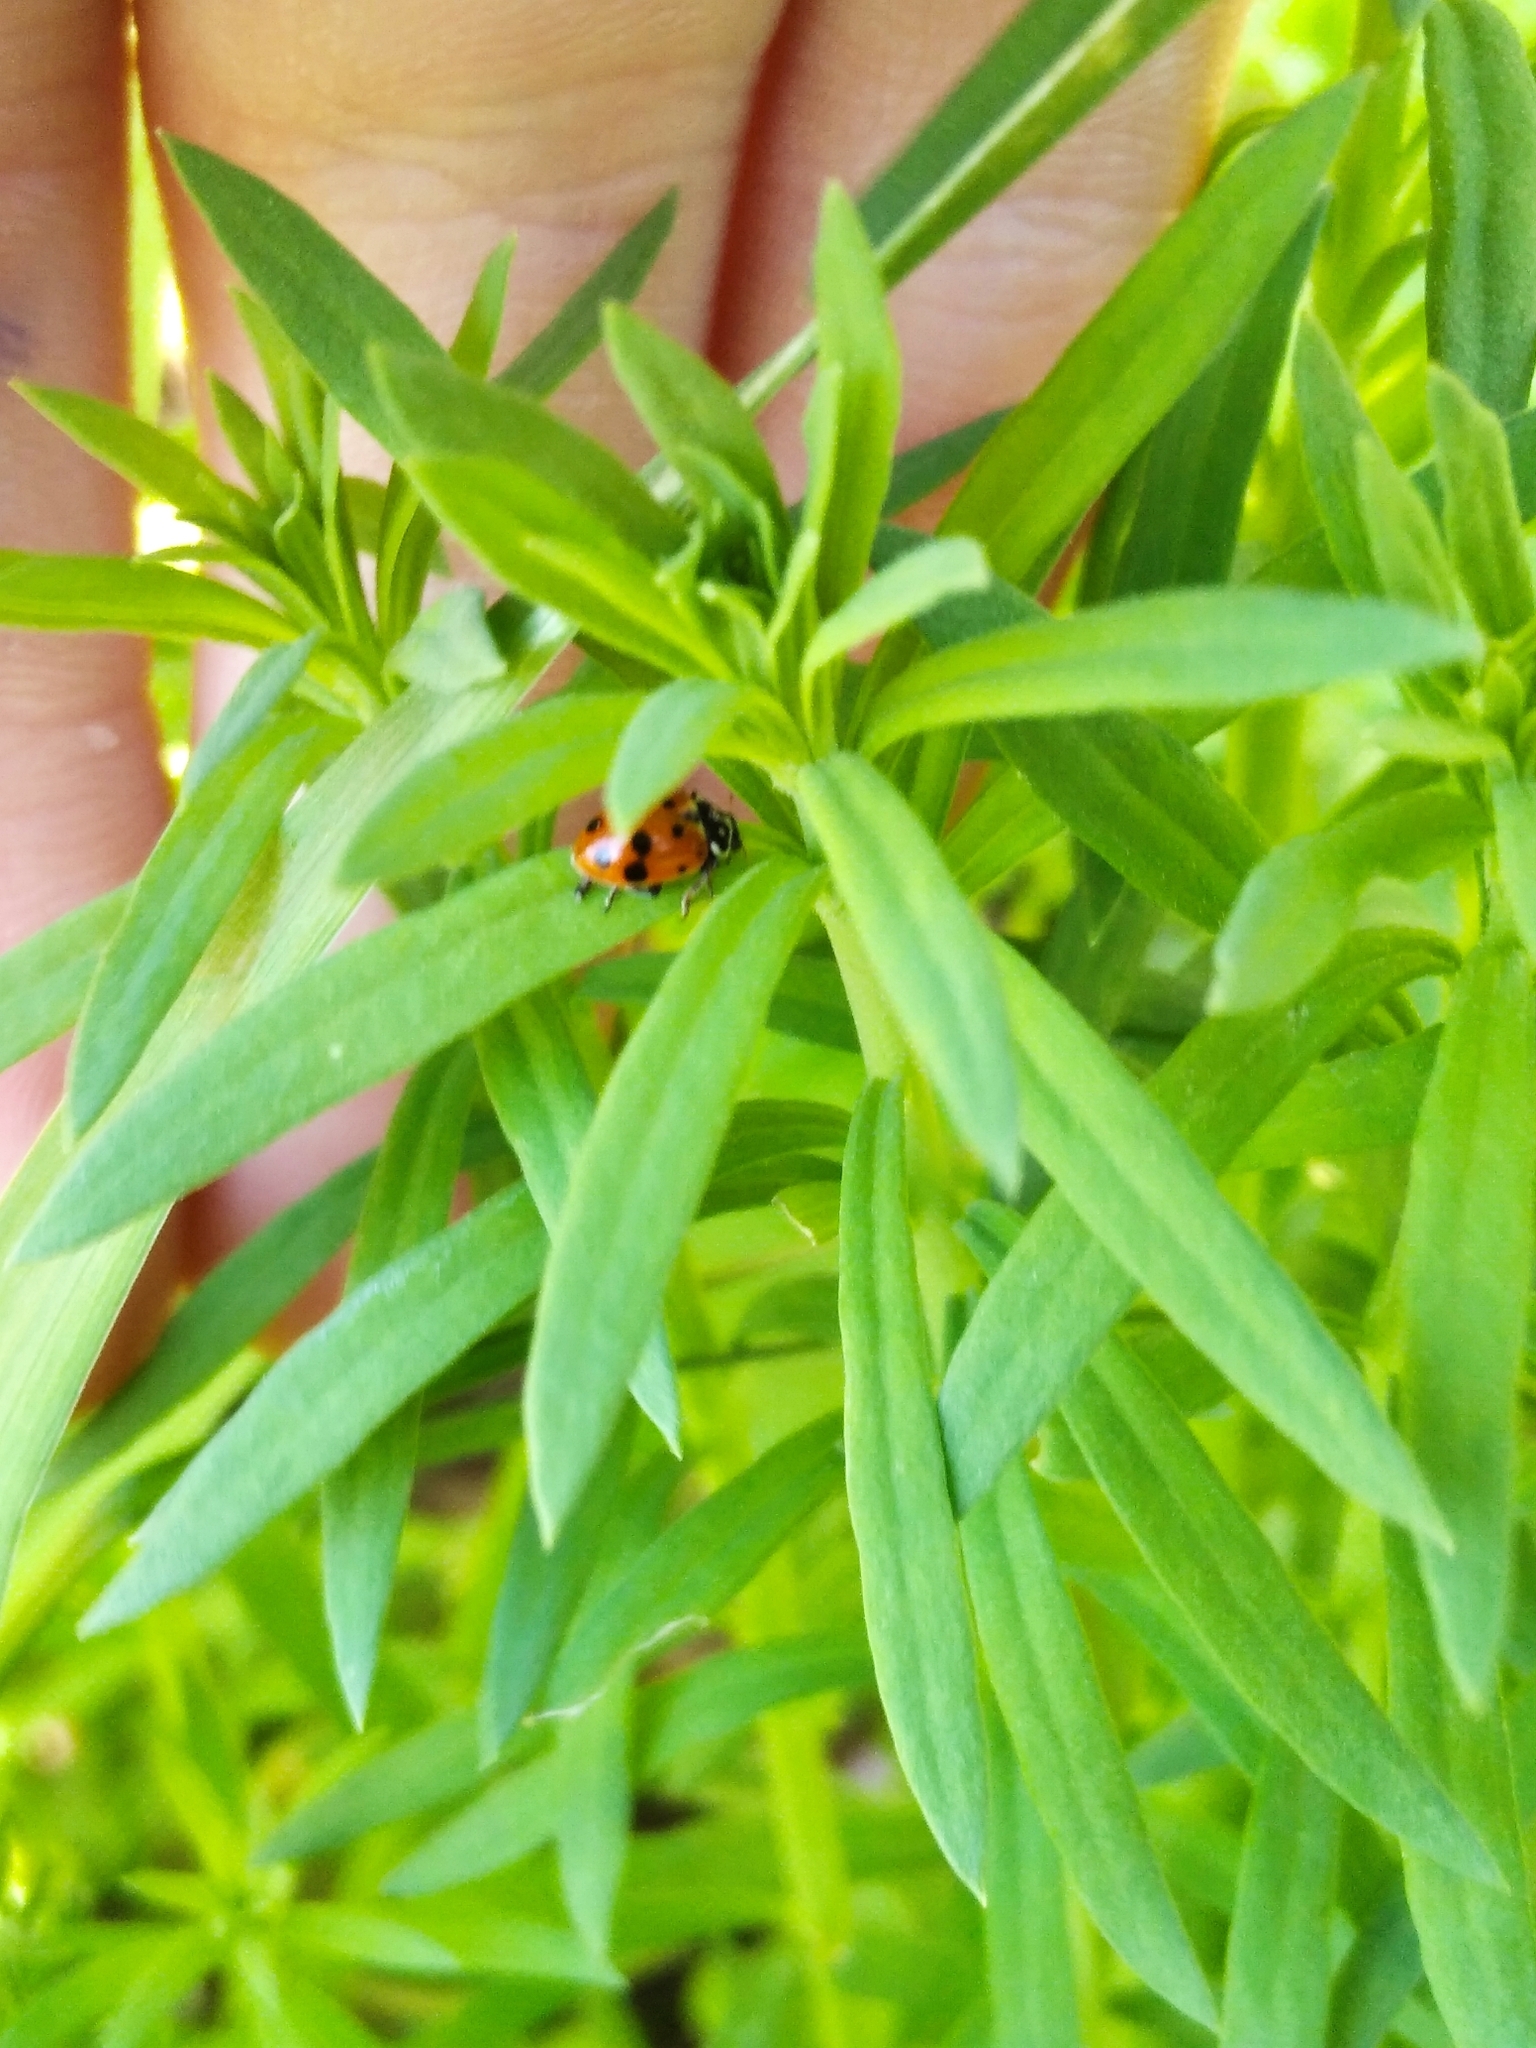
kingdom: Animalia
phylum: Arthropoda
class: Insecta
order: Coleoptera
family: Coccinellidae
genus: Hippodamia
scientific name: Hippodamia variegata
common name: Ladybird beetle
